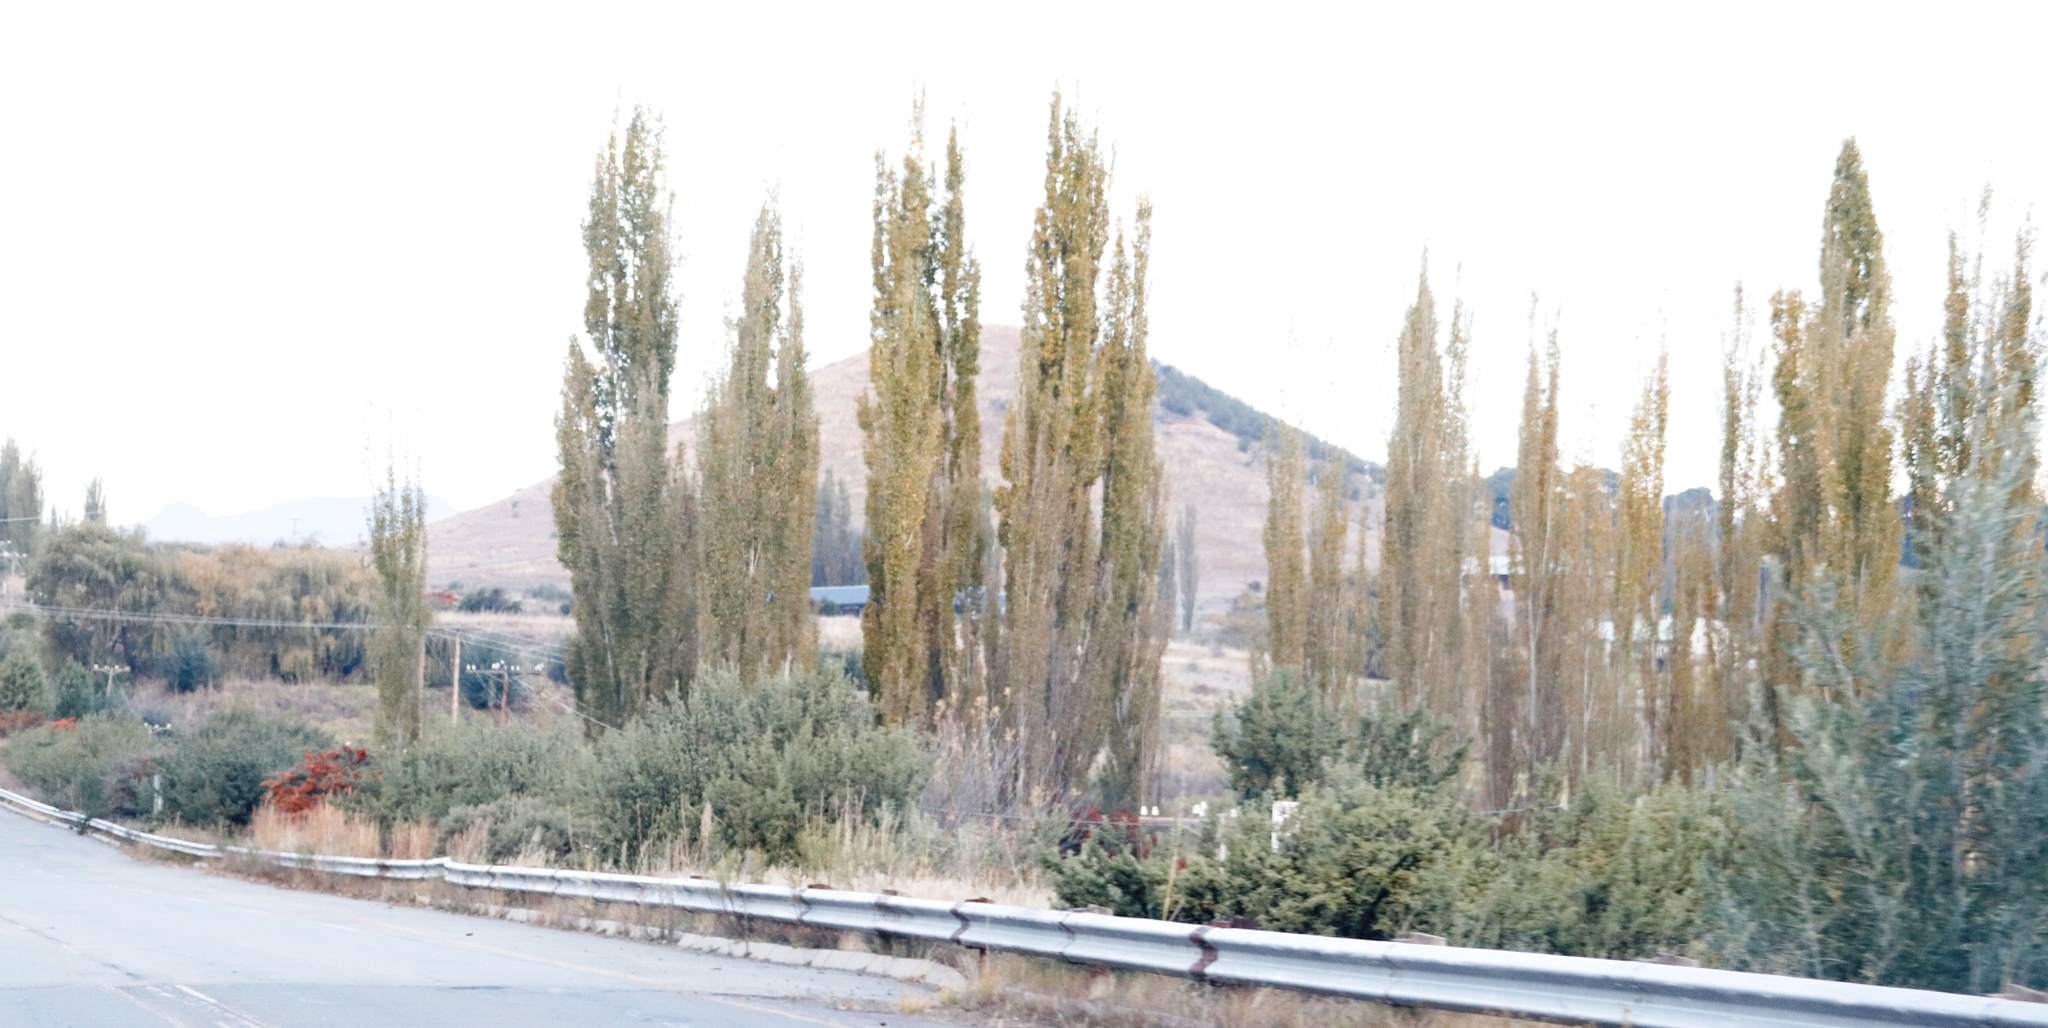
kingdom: Plantae
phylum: Tracheophyta
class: Magnoliopsida
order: Malpighiales
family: Salicaceae
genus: Populus
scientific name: Populus nigra
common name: Black poplar
